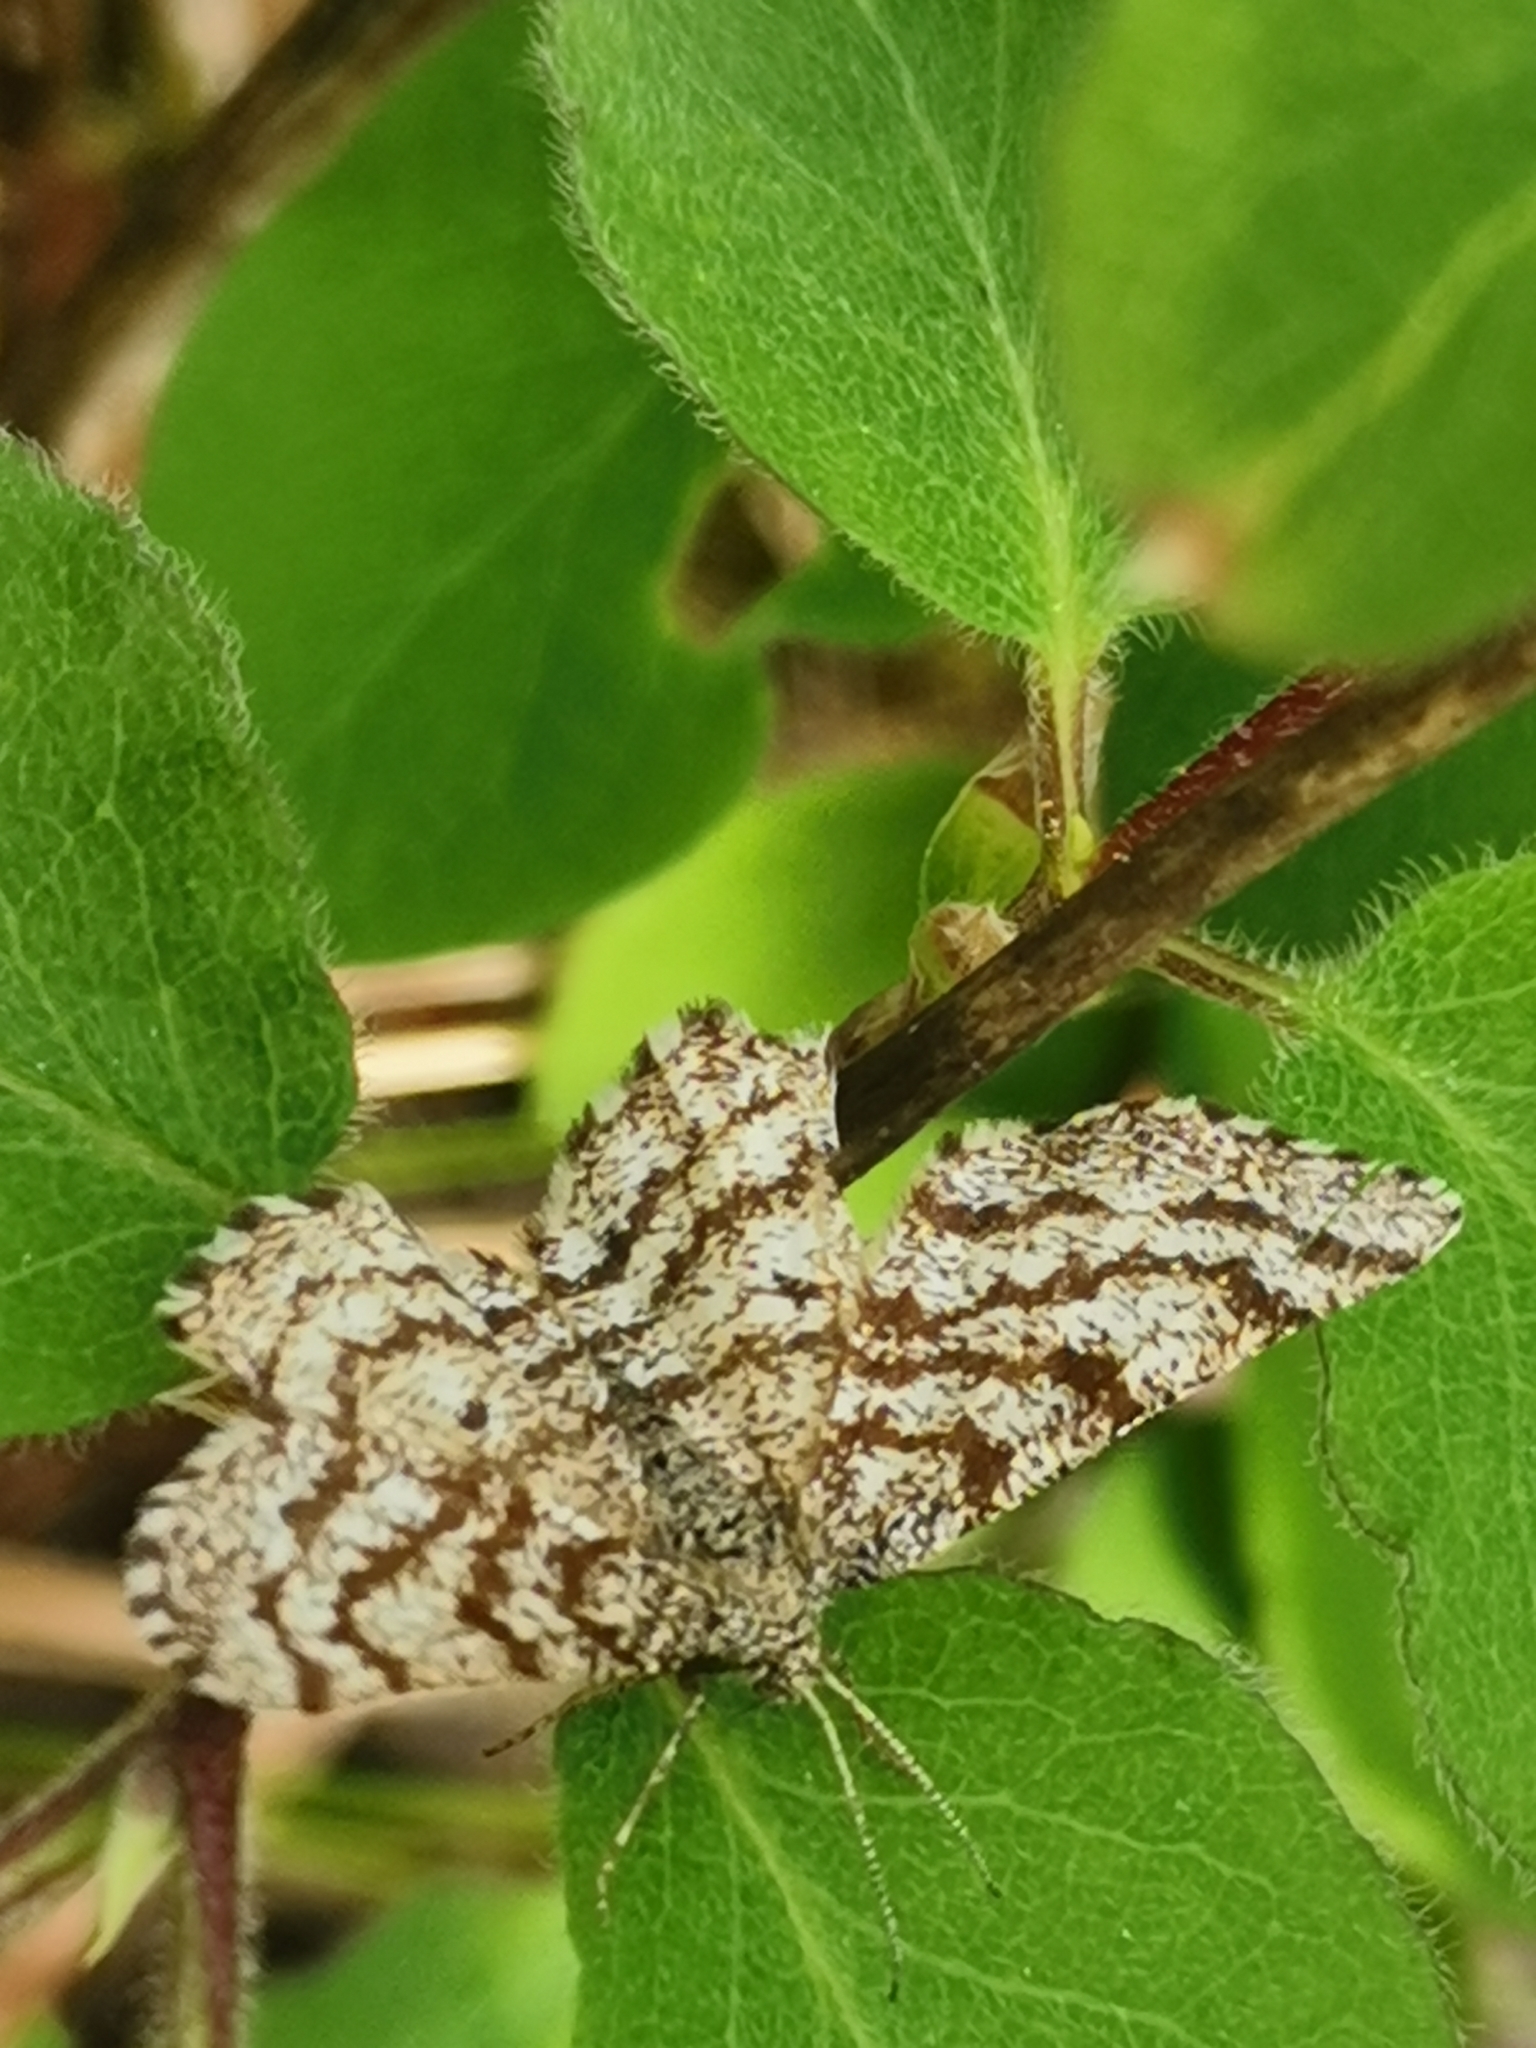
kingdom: Animalia
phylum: Arthropoda
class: Insecta
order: Lepidoptera
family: Geometridae
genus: Ematurga
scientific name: Ematurga atomaria
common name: Common heath
